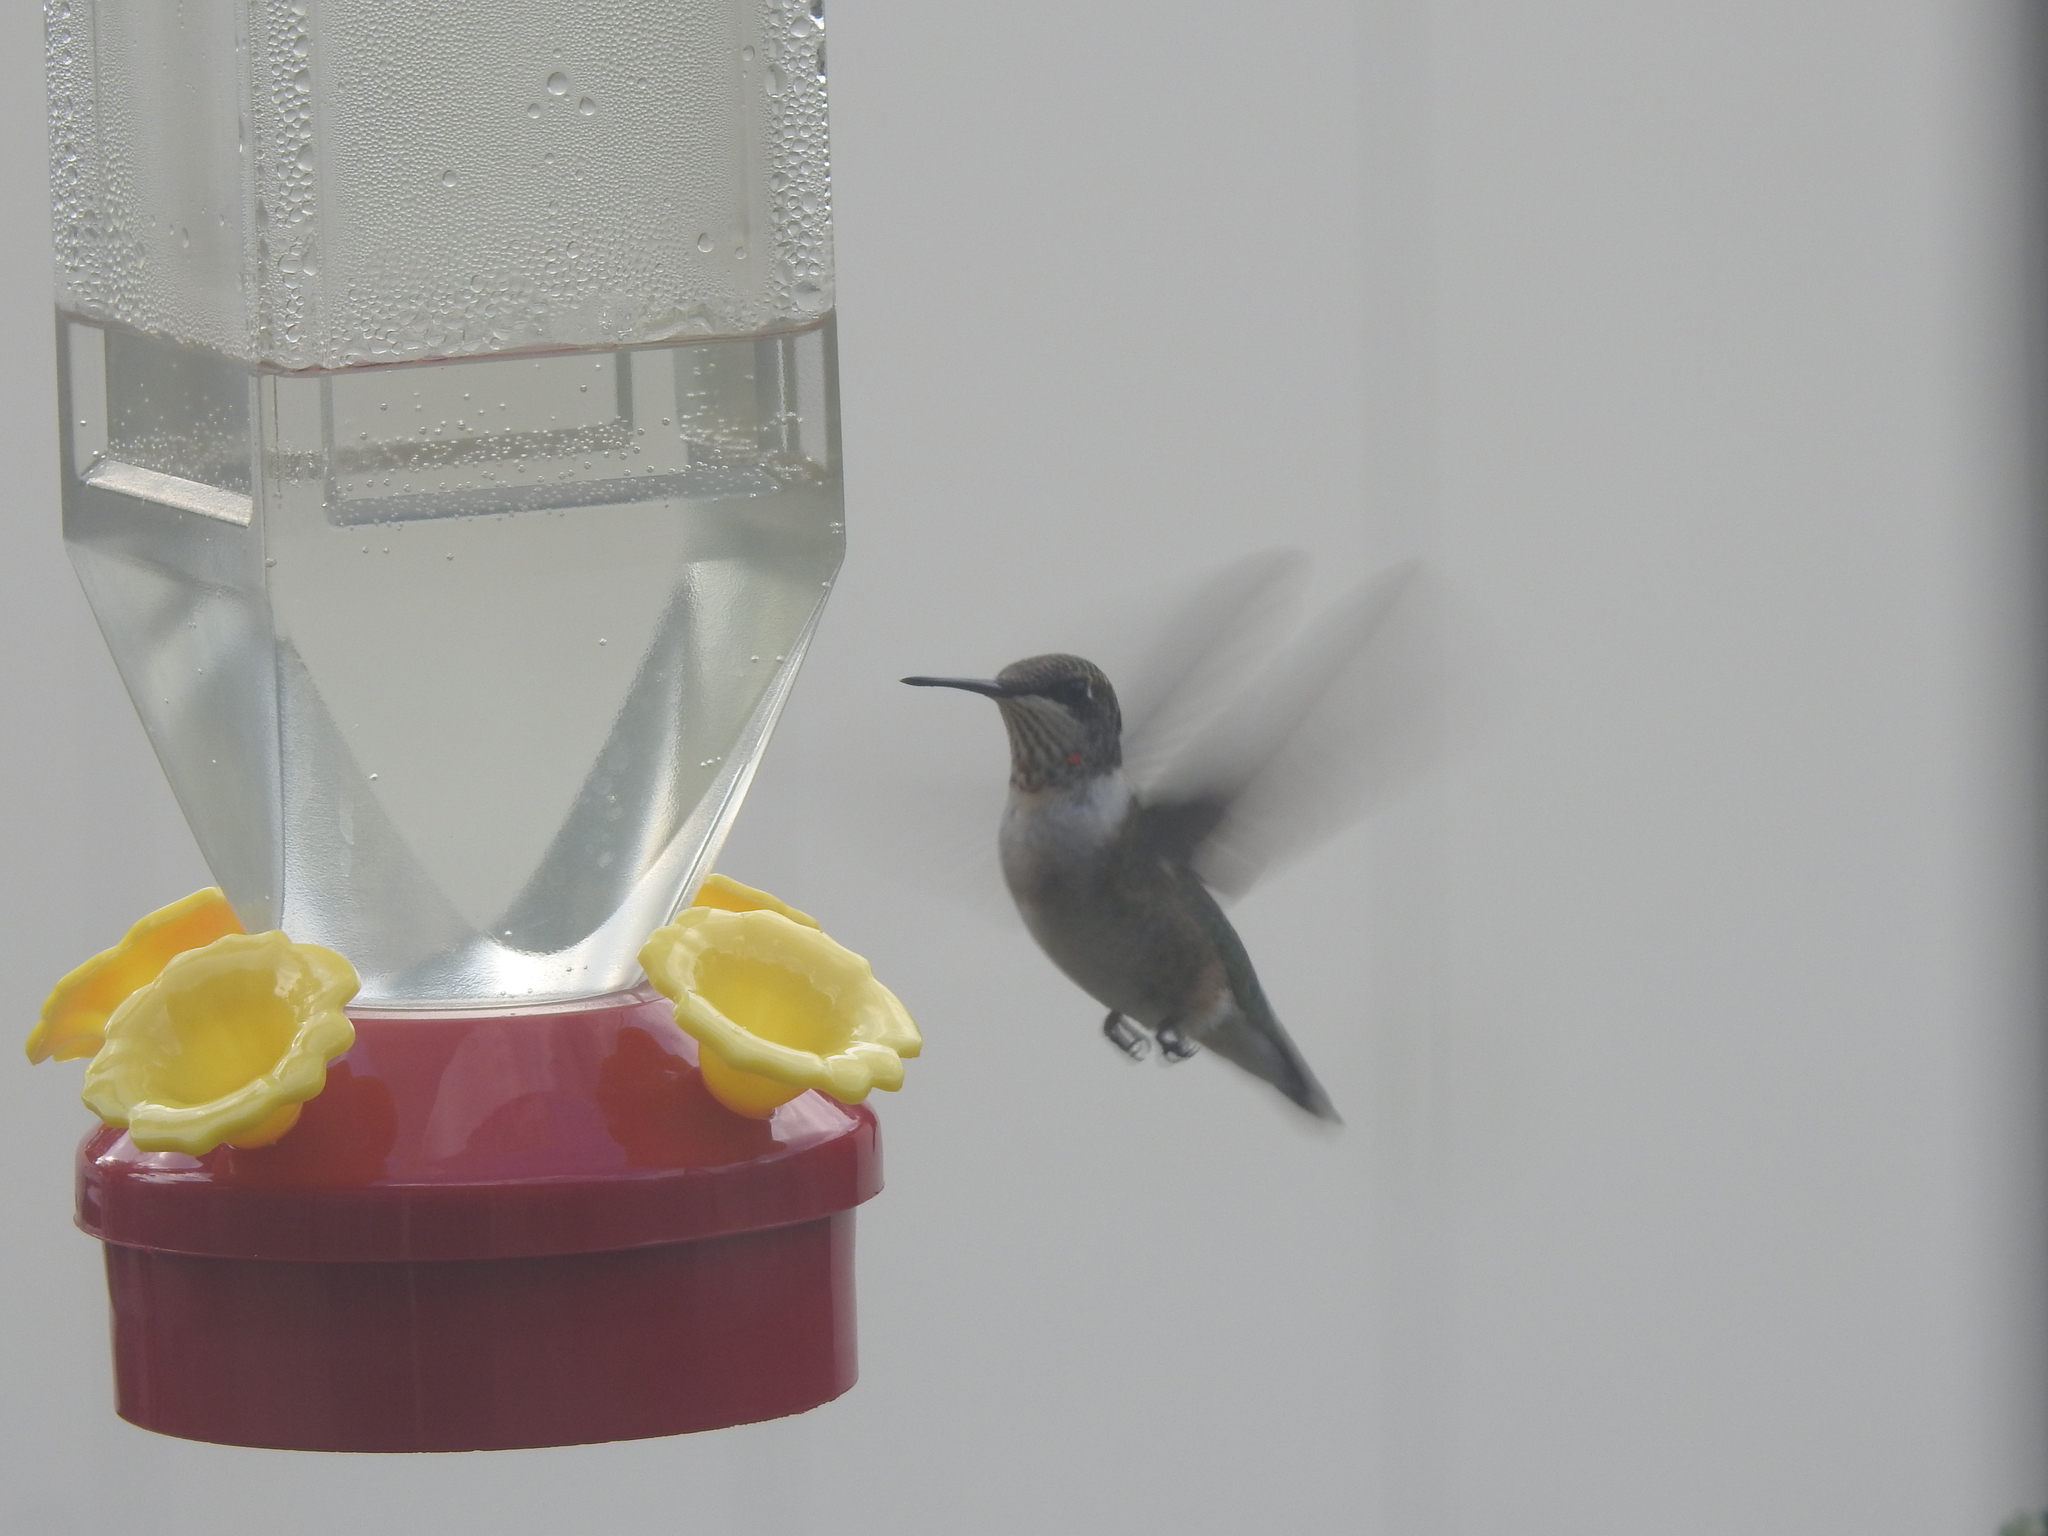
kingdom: Animalia
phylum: Chordata
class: Aves
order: Apodiformes
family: Trochilidae
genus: Archilochus
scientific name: Archilochus colubris
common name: Ruby-throated hummingbird
